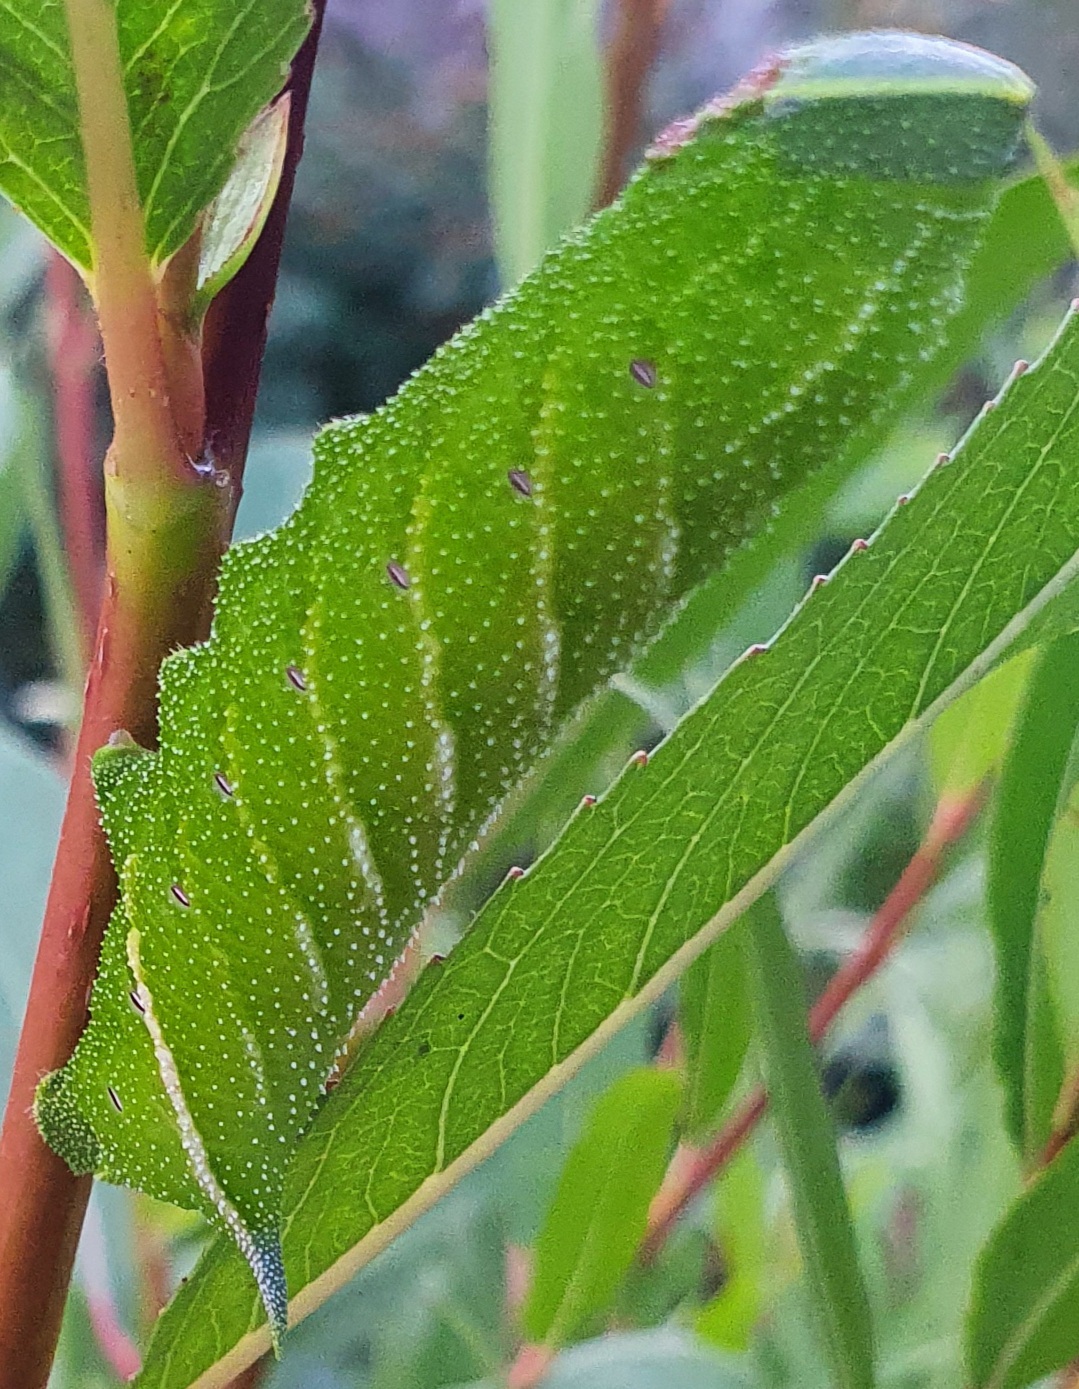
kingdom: Animalia
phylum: Arthropoda
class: Insecta
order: Lepidoptera
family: Sphingidae
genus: Smerinthus
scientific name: Smerinthus ocellata
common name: Eyed hawk-moth
